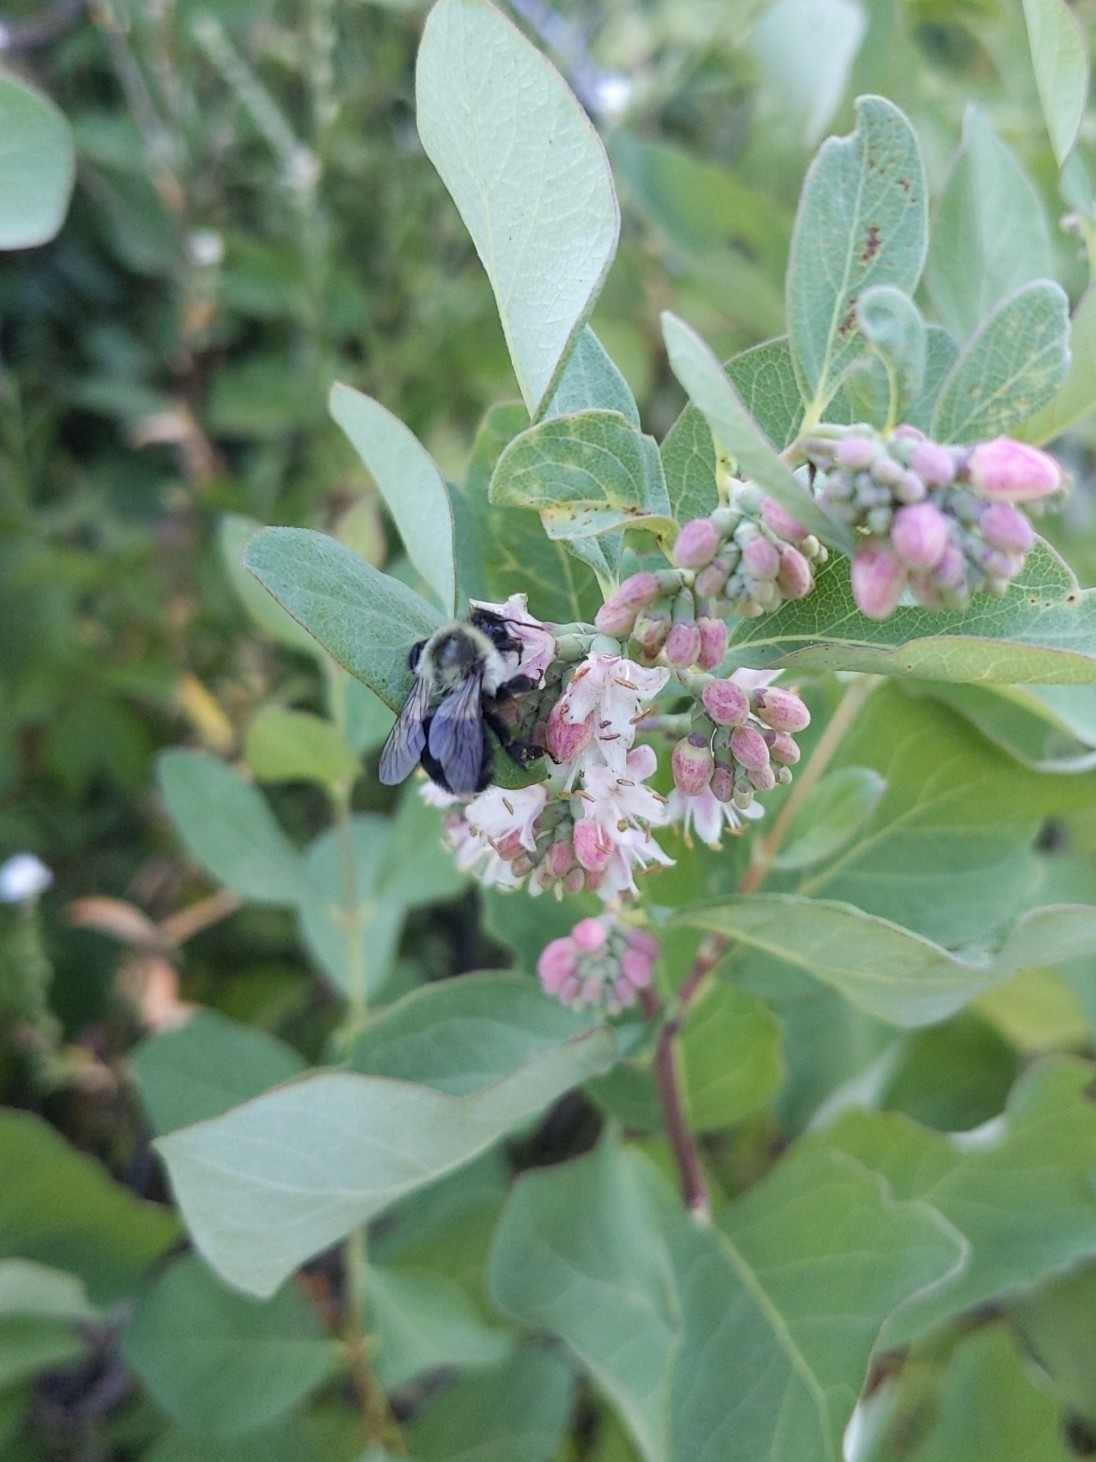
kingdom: Animalia
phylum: Arthropoda
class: Insecta
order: Hymenoptera
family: Apidae
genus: Bombus
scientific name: Bombus impatiens
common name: Common eastern bumble bee
